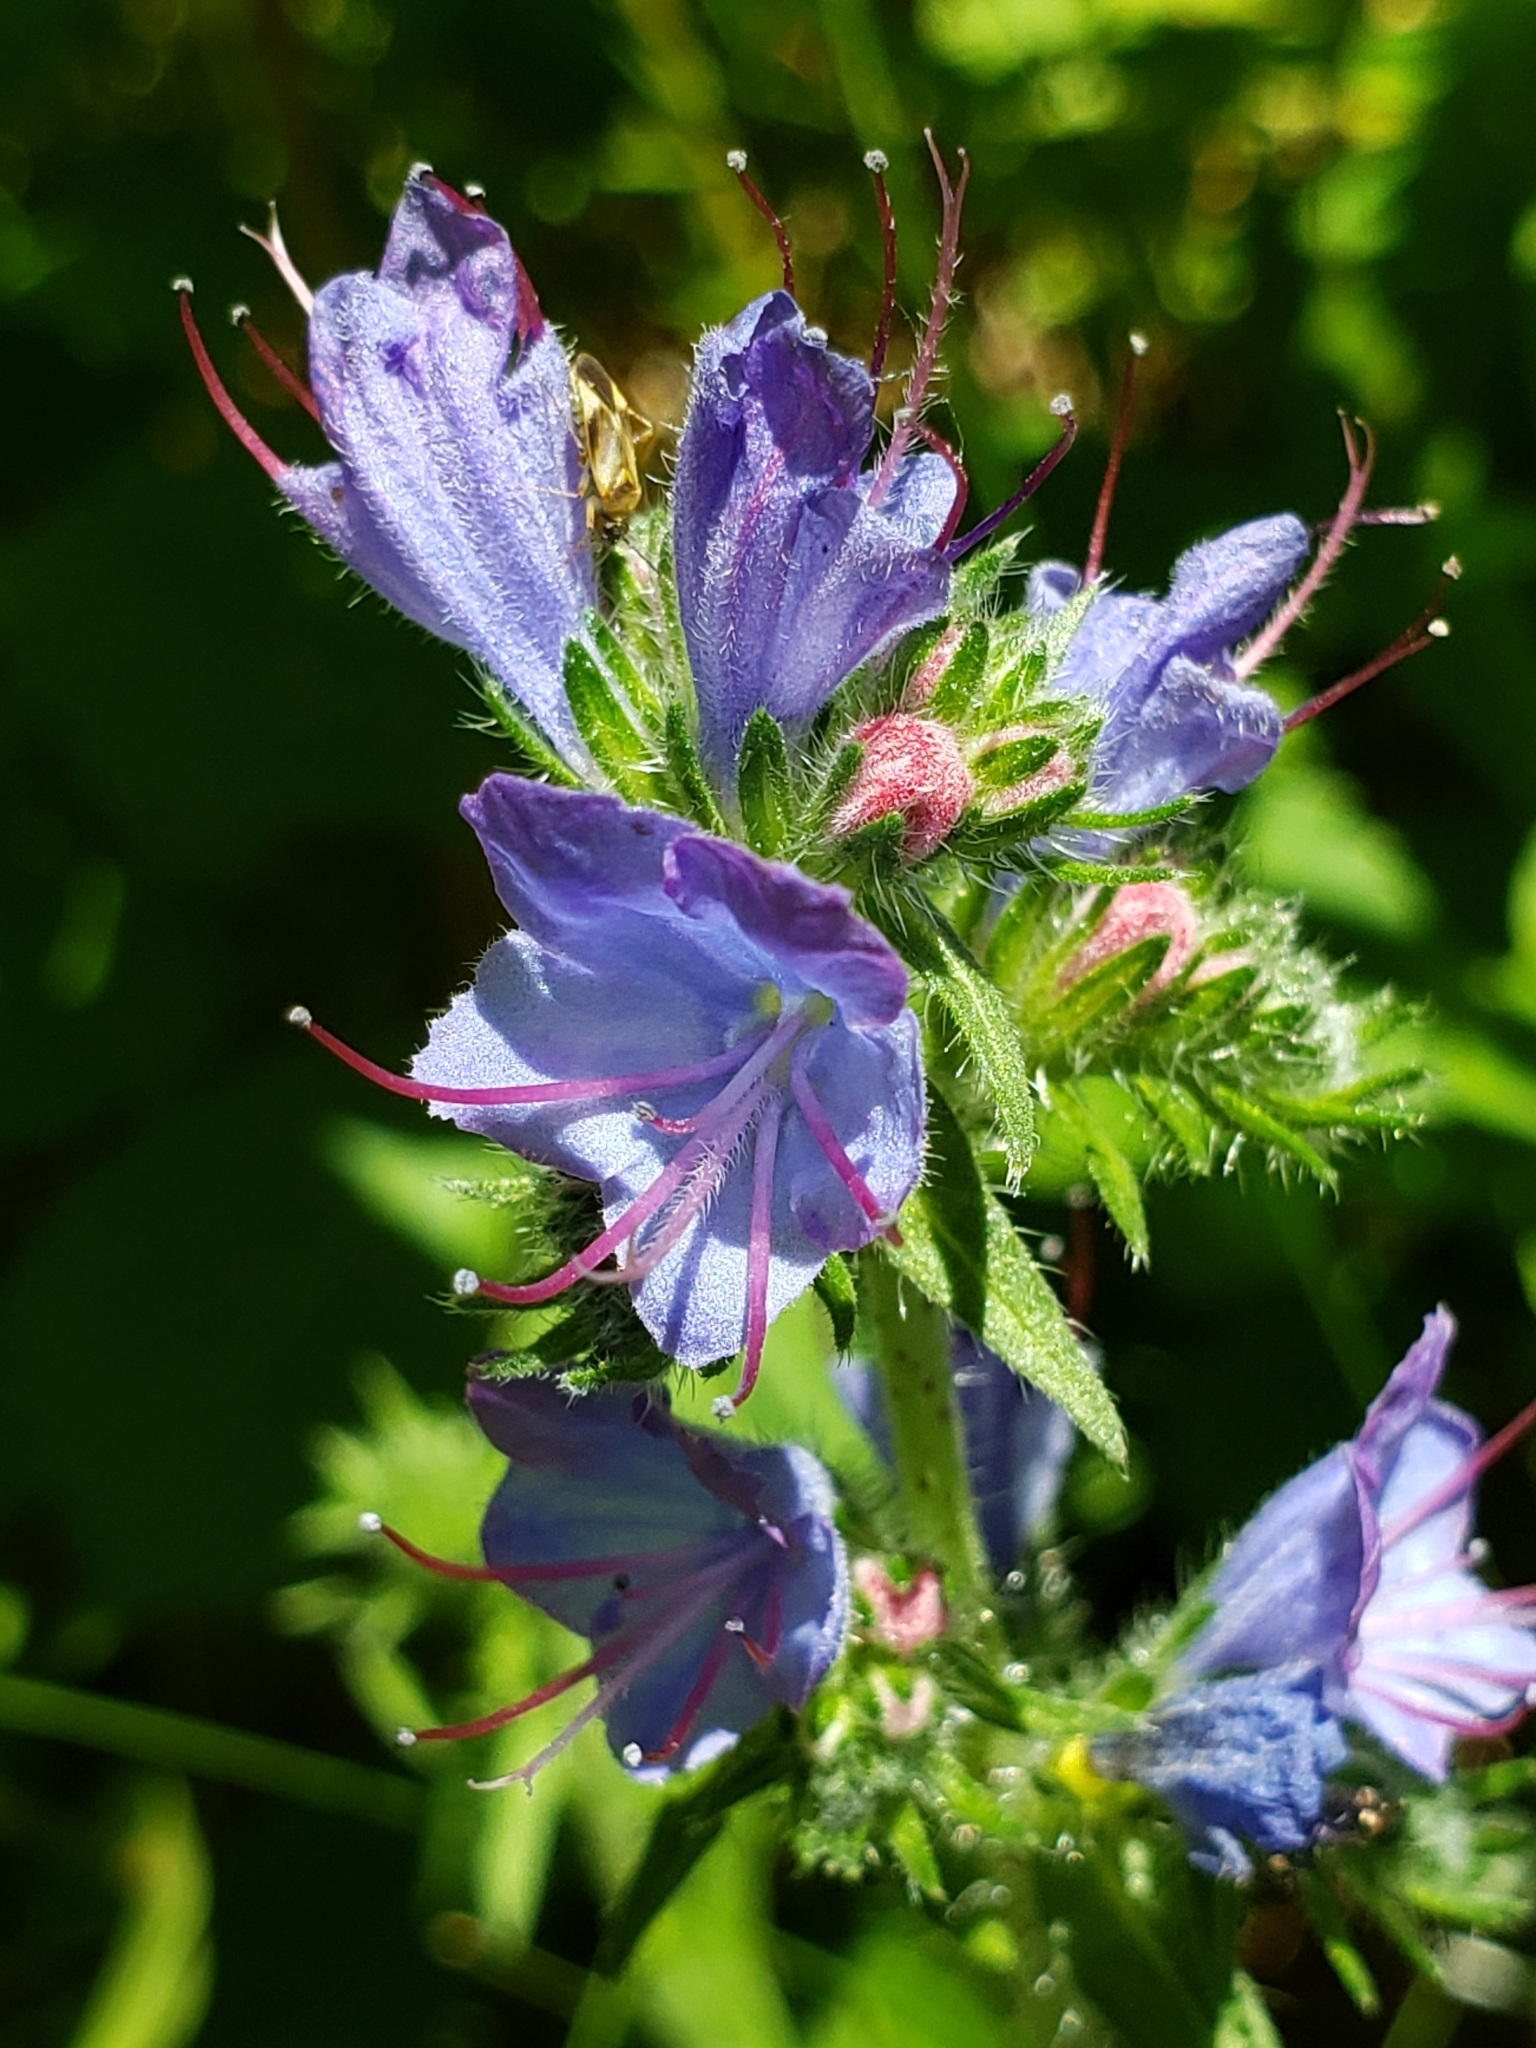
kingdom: Plantae
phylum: Tracheophyta
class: Magnoliopsida
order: Boraginales
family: Boraginaceae
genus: Echium
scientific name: Echium vulgare
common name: Common viper's bugloss
